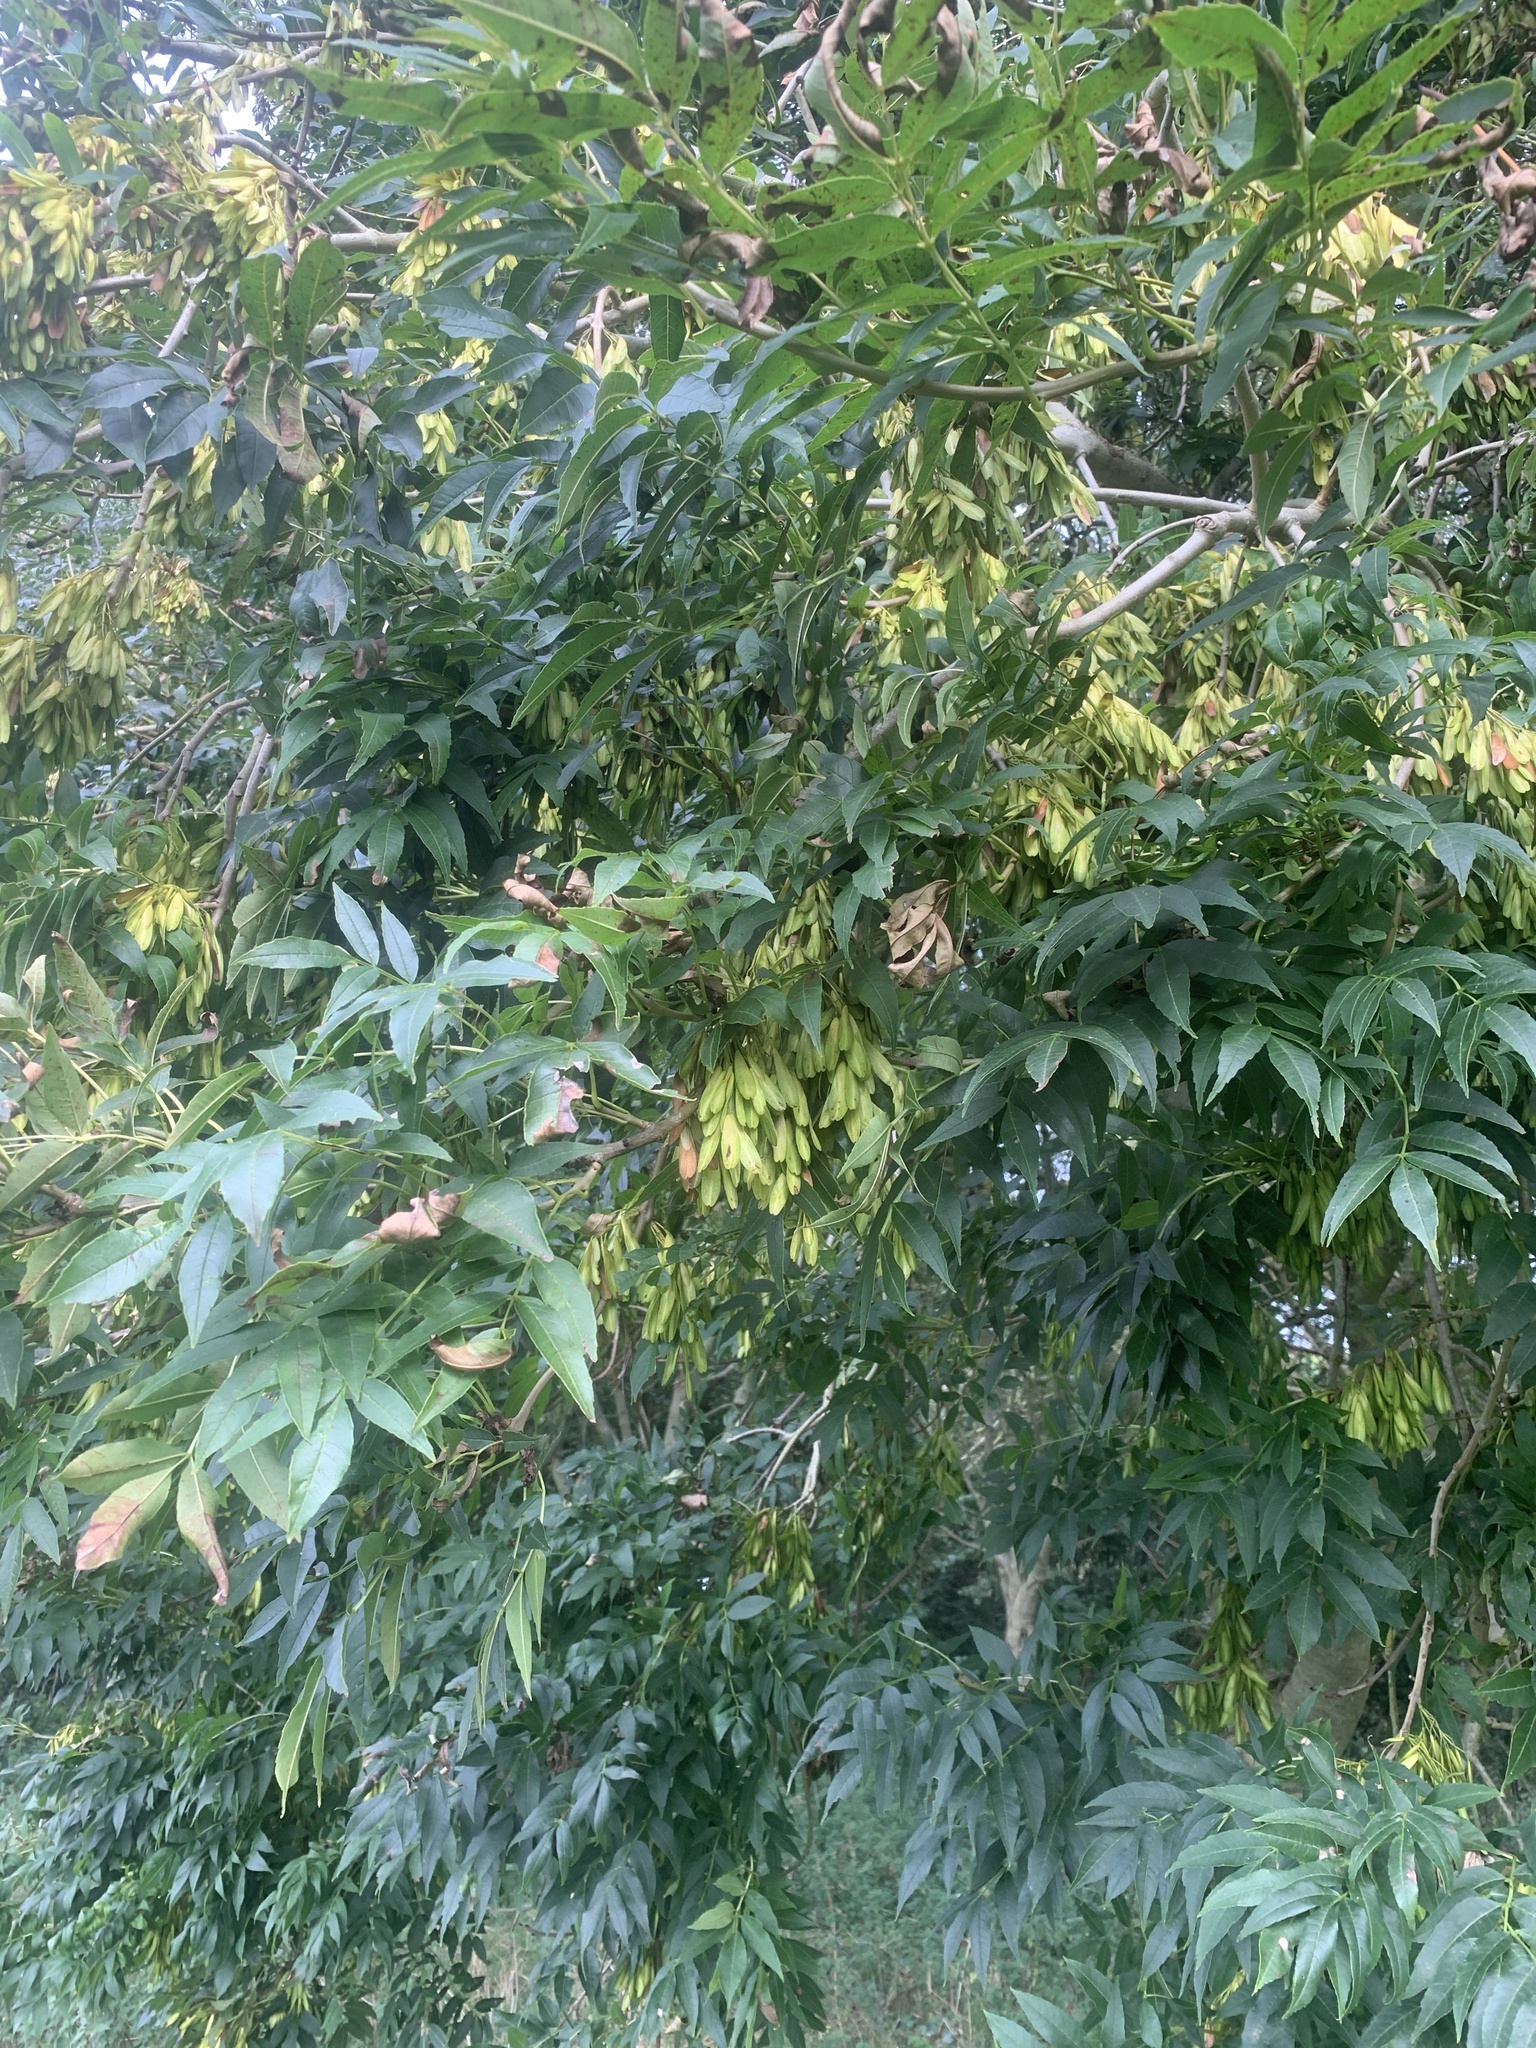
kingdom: Plantae
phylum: Tracheophyta
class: Magnoliopsida
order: Lamiales
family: Oleaceae
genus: Fraxinus
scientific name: Fraxinus excelsior
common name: European ash
